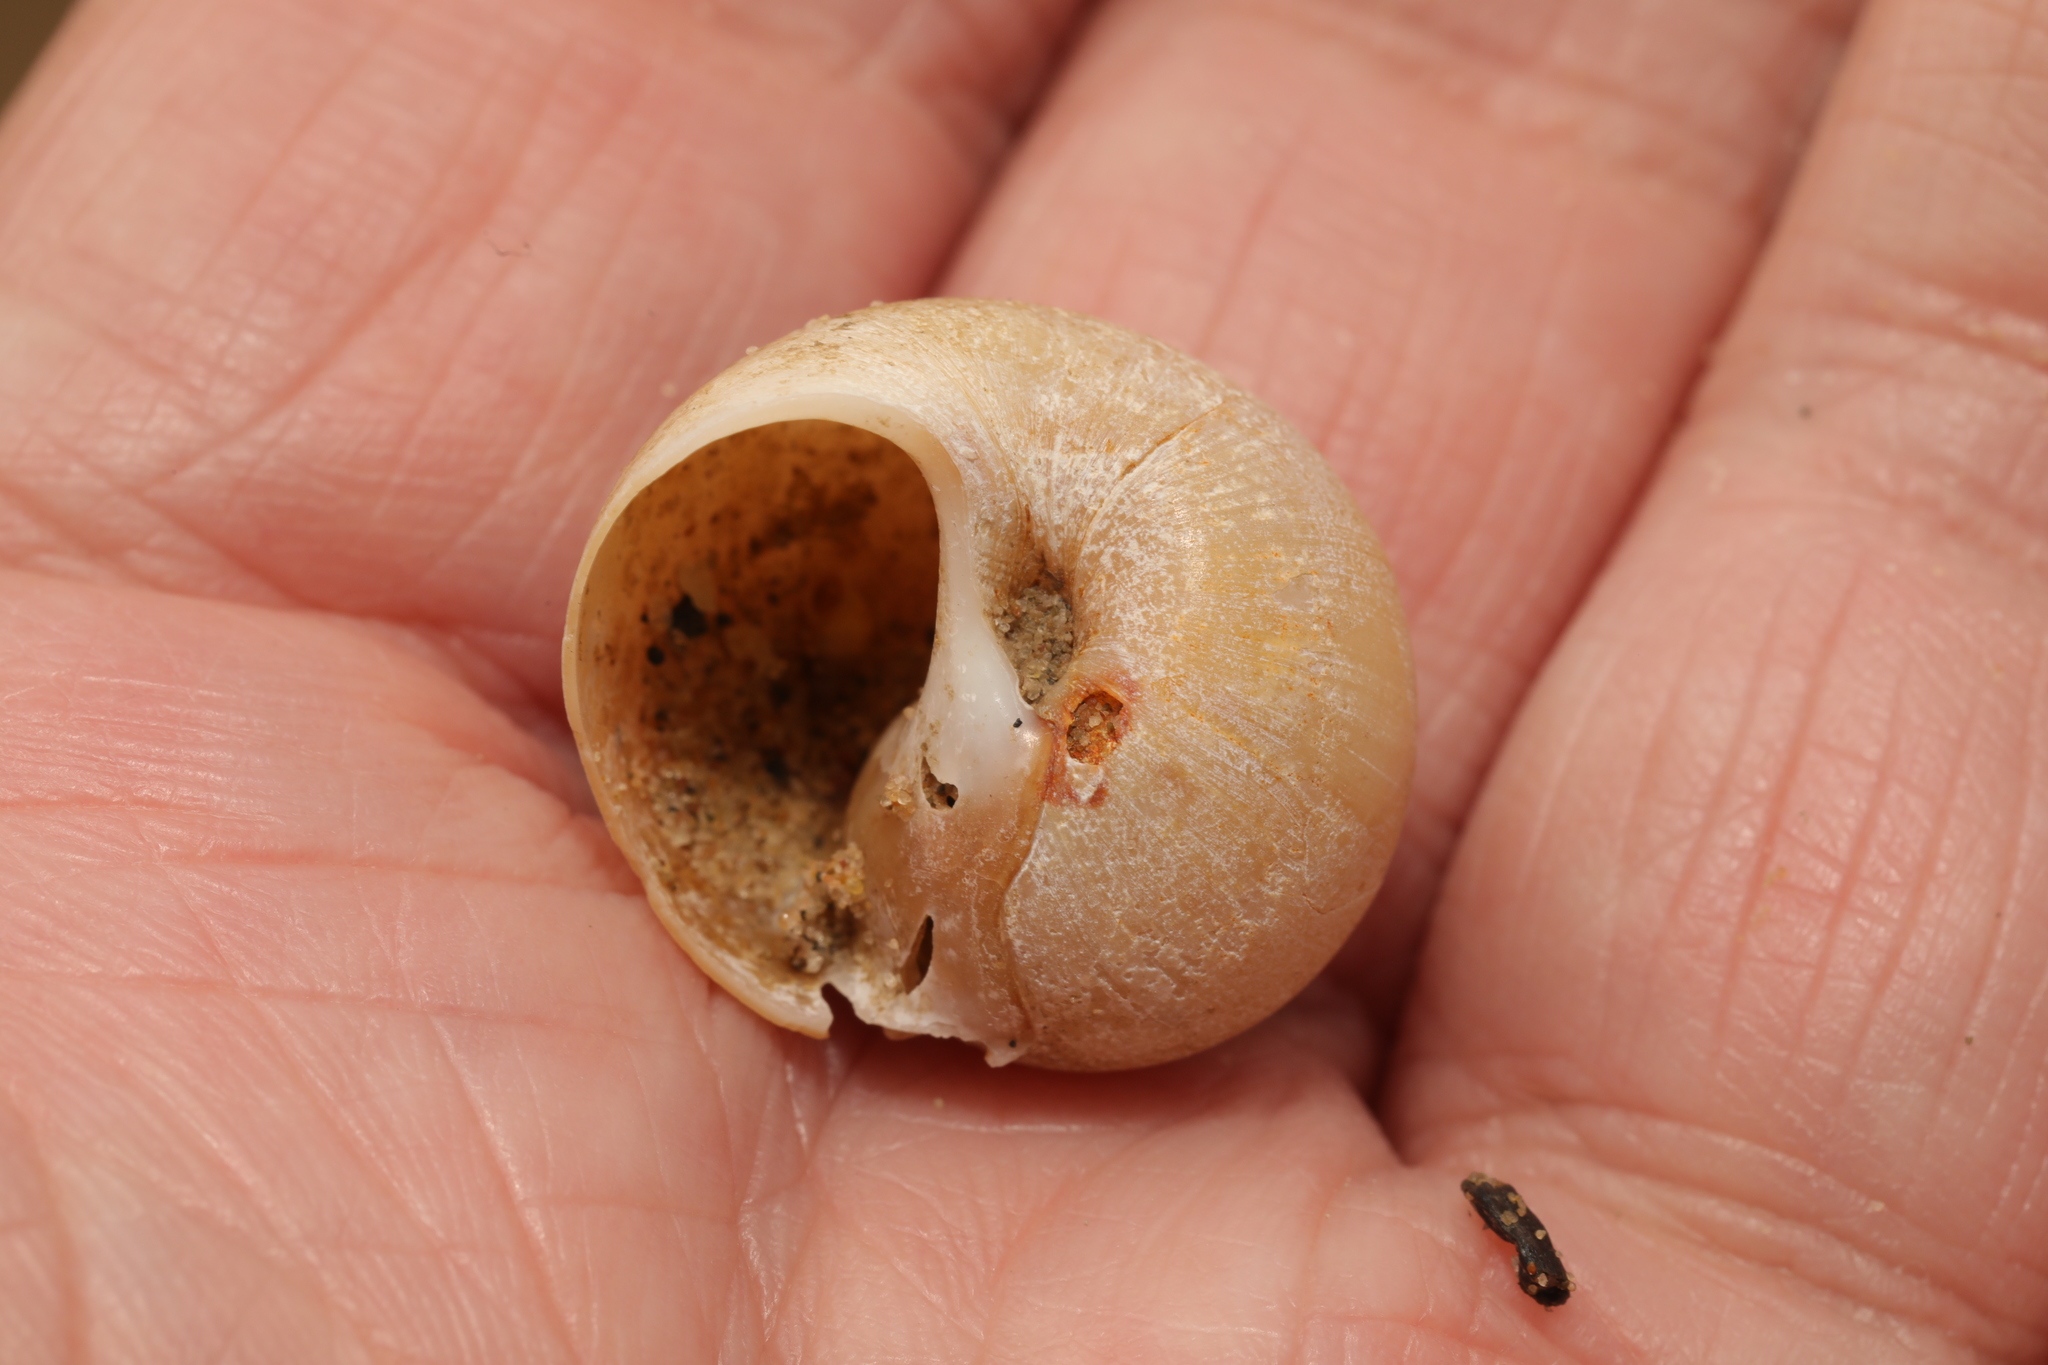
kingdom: Animalia
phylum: Mollusca
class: Gastropoda
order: Littorinimorpha
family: Naticidae
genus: Euspira
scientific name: Euspira catena
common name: Necklace shell
